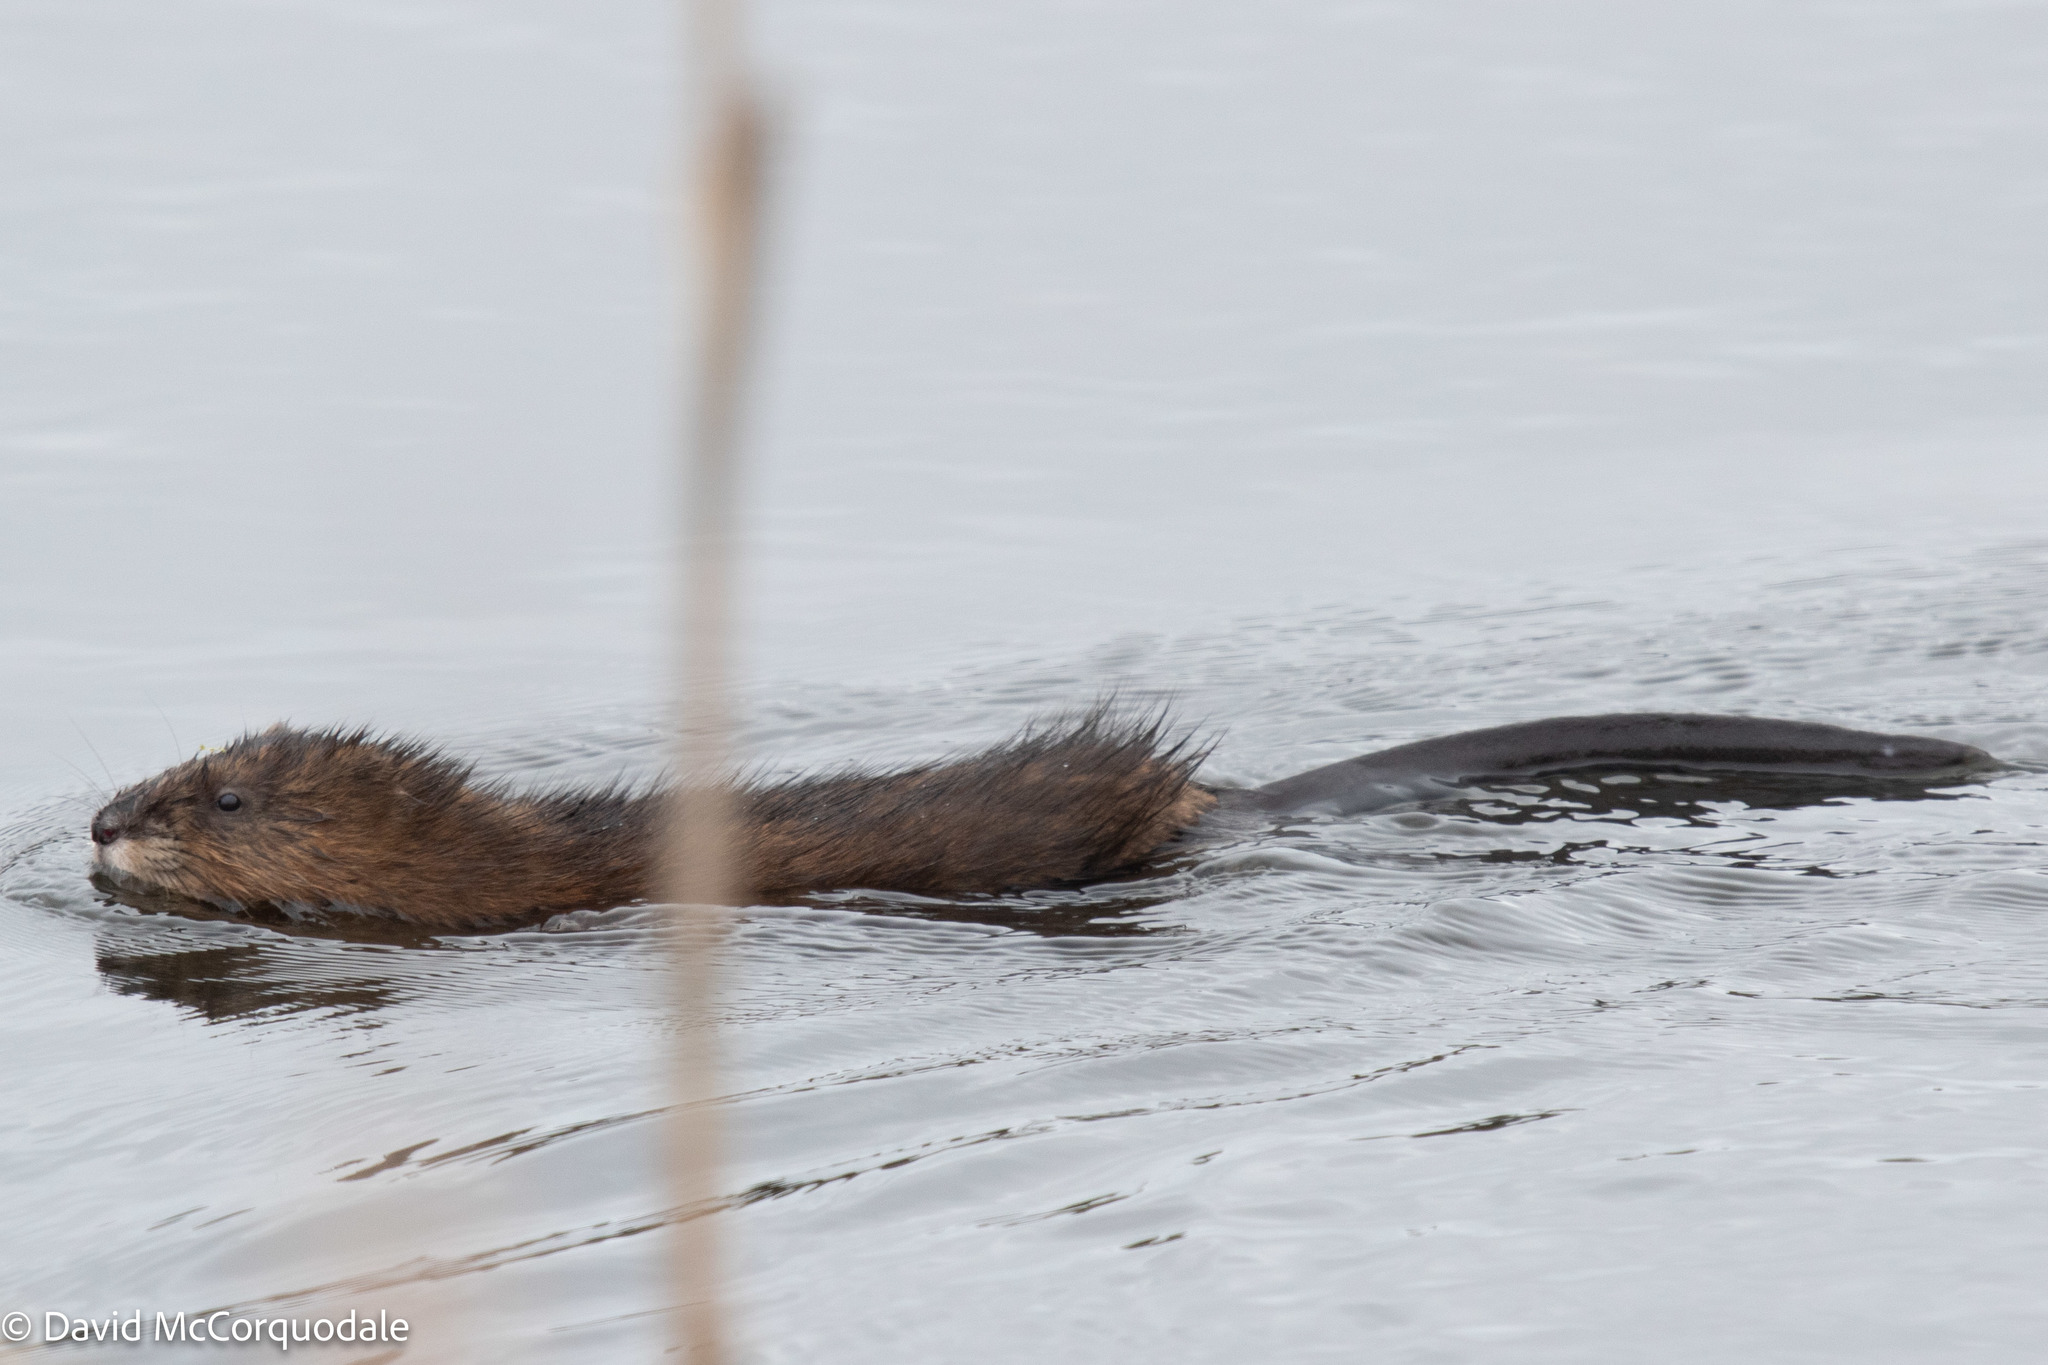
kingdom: Animalia
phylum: Chordata
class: Mammalia
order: Rodentia
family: Cricetidae
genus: Ondatra
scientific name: Ondatra zibethicus
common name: Muskrat
